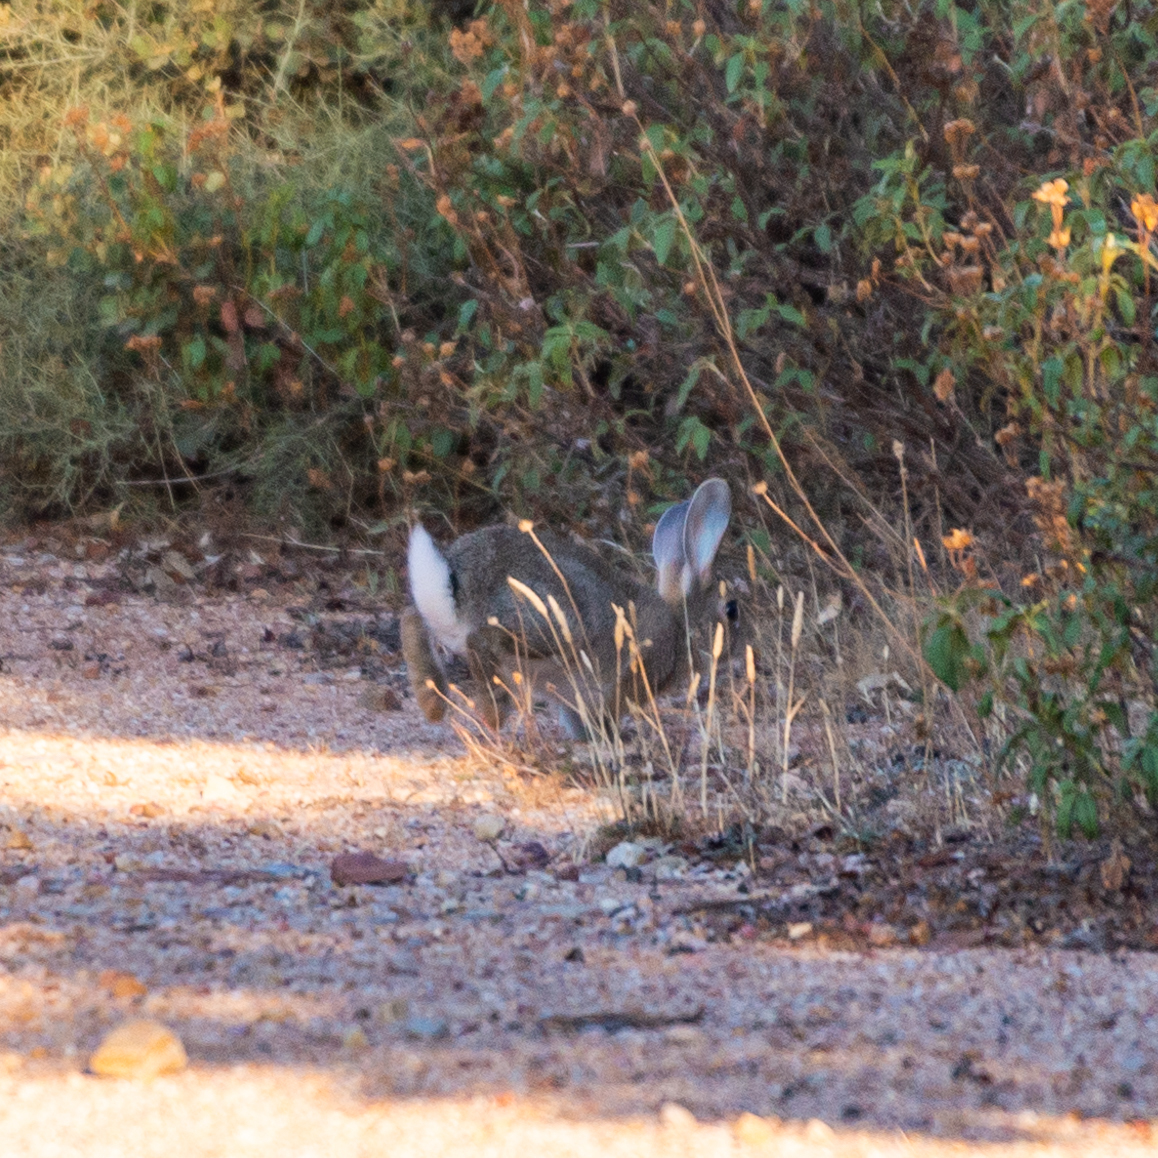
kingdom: Animalia
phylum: Chordata
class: Mammalia
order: Lagomorpha
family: Leporidae
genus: Oryctolagus
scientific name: Oryctolagus cuniculus
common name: European rabbit
